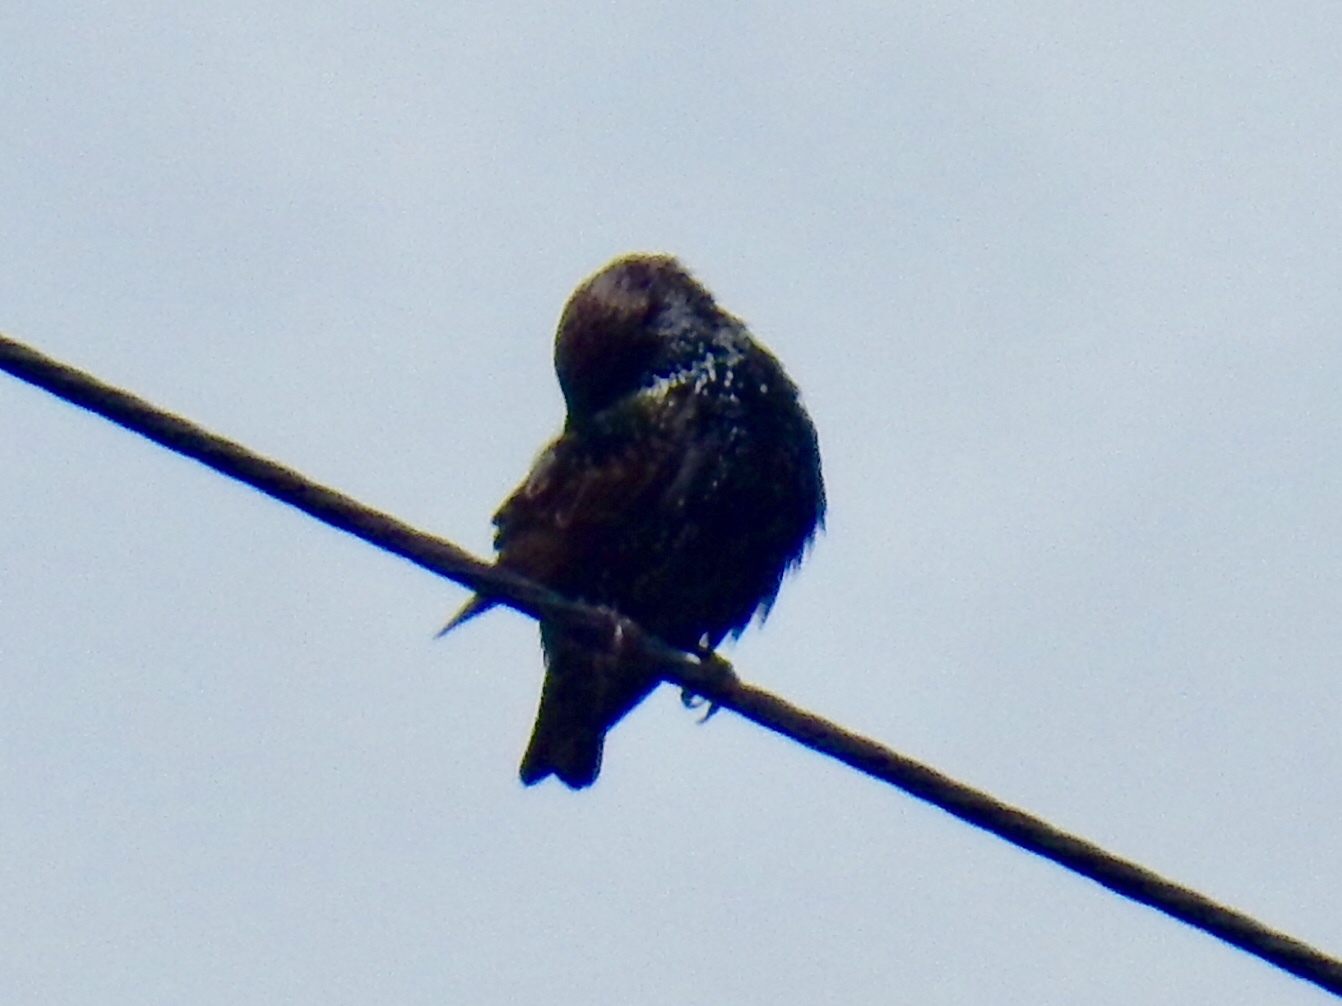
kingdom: Animalia
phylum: Chordata
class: Aves
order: Passeriformes
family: Sturnidae
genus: Sturnus
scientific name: Sturnus vulgaris
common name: Common starling
